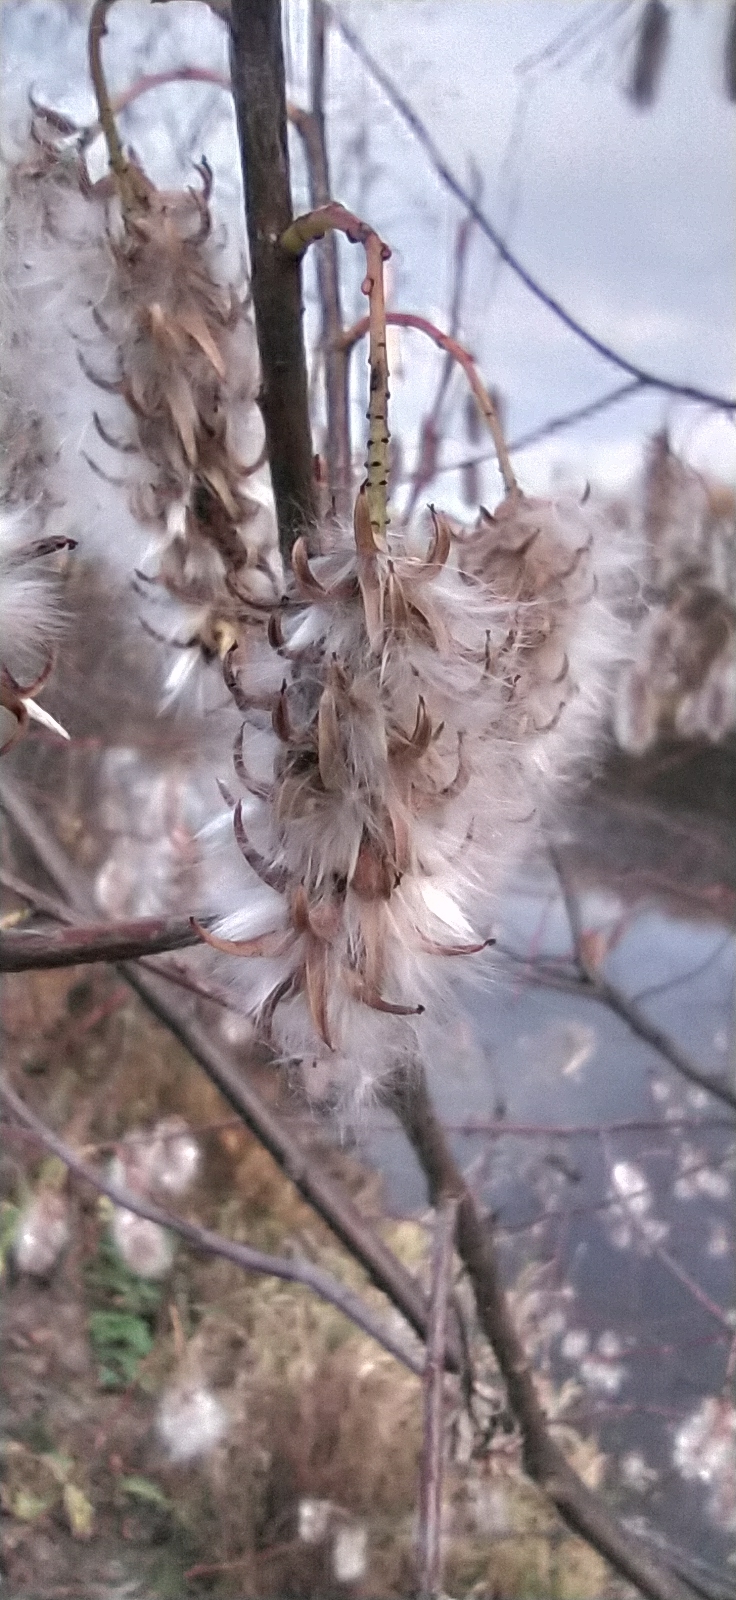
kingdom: Plantae
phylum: Tracheophyta
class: Magnoliopsida
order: Malpighiales
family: Salicaceae
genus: Salix
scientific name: Salix pentandra
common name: Bay willow
